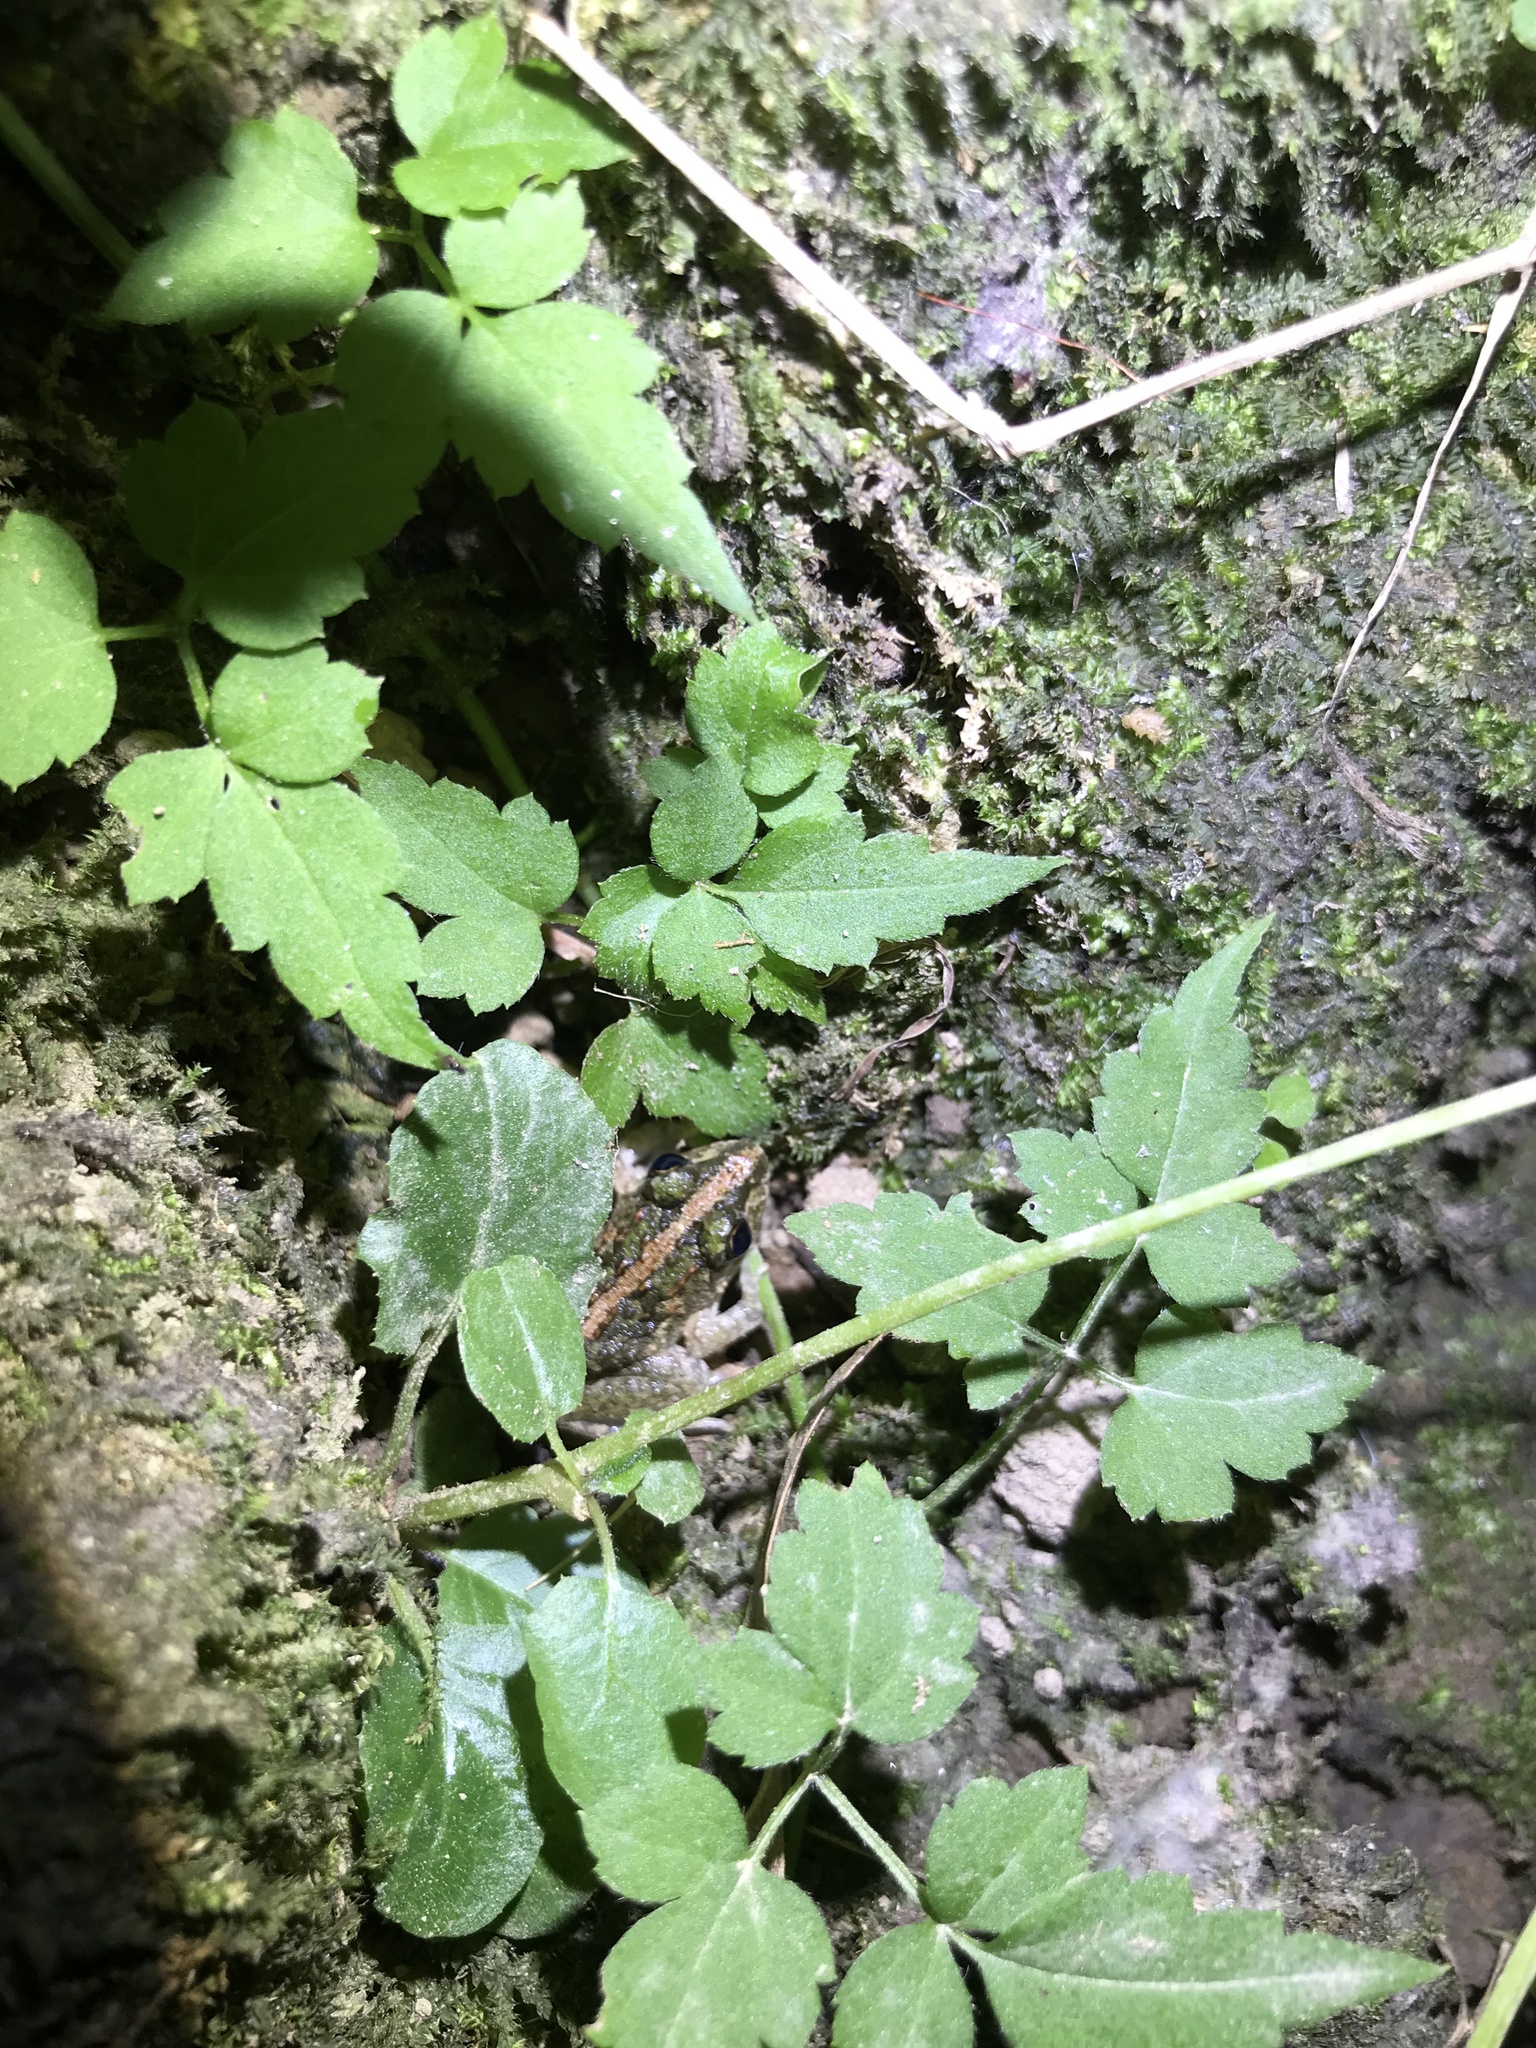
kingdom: Animalia
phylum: Chordata
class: Amphibia
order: Anura
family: Dicroglossidae
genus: Fejervarya
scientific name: Fejervarya limnocharis
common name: Asian grass frog/common pond frog/field frog/grass frog/indian rice frog
